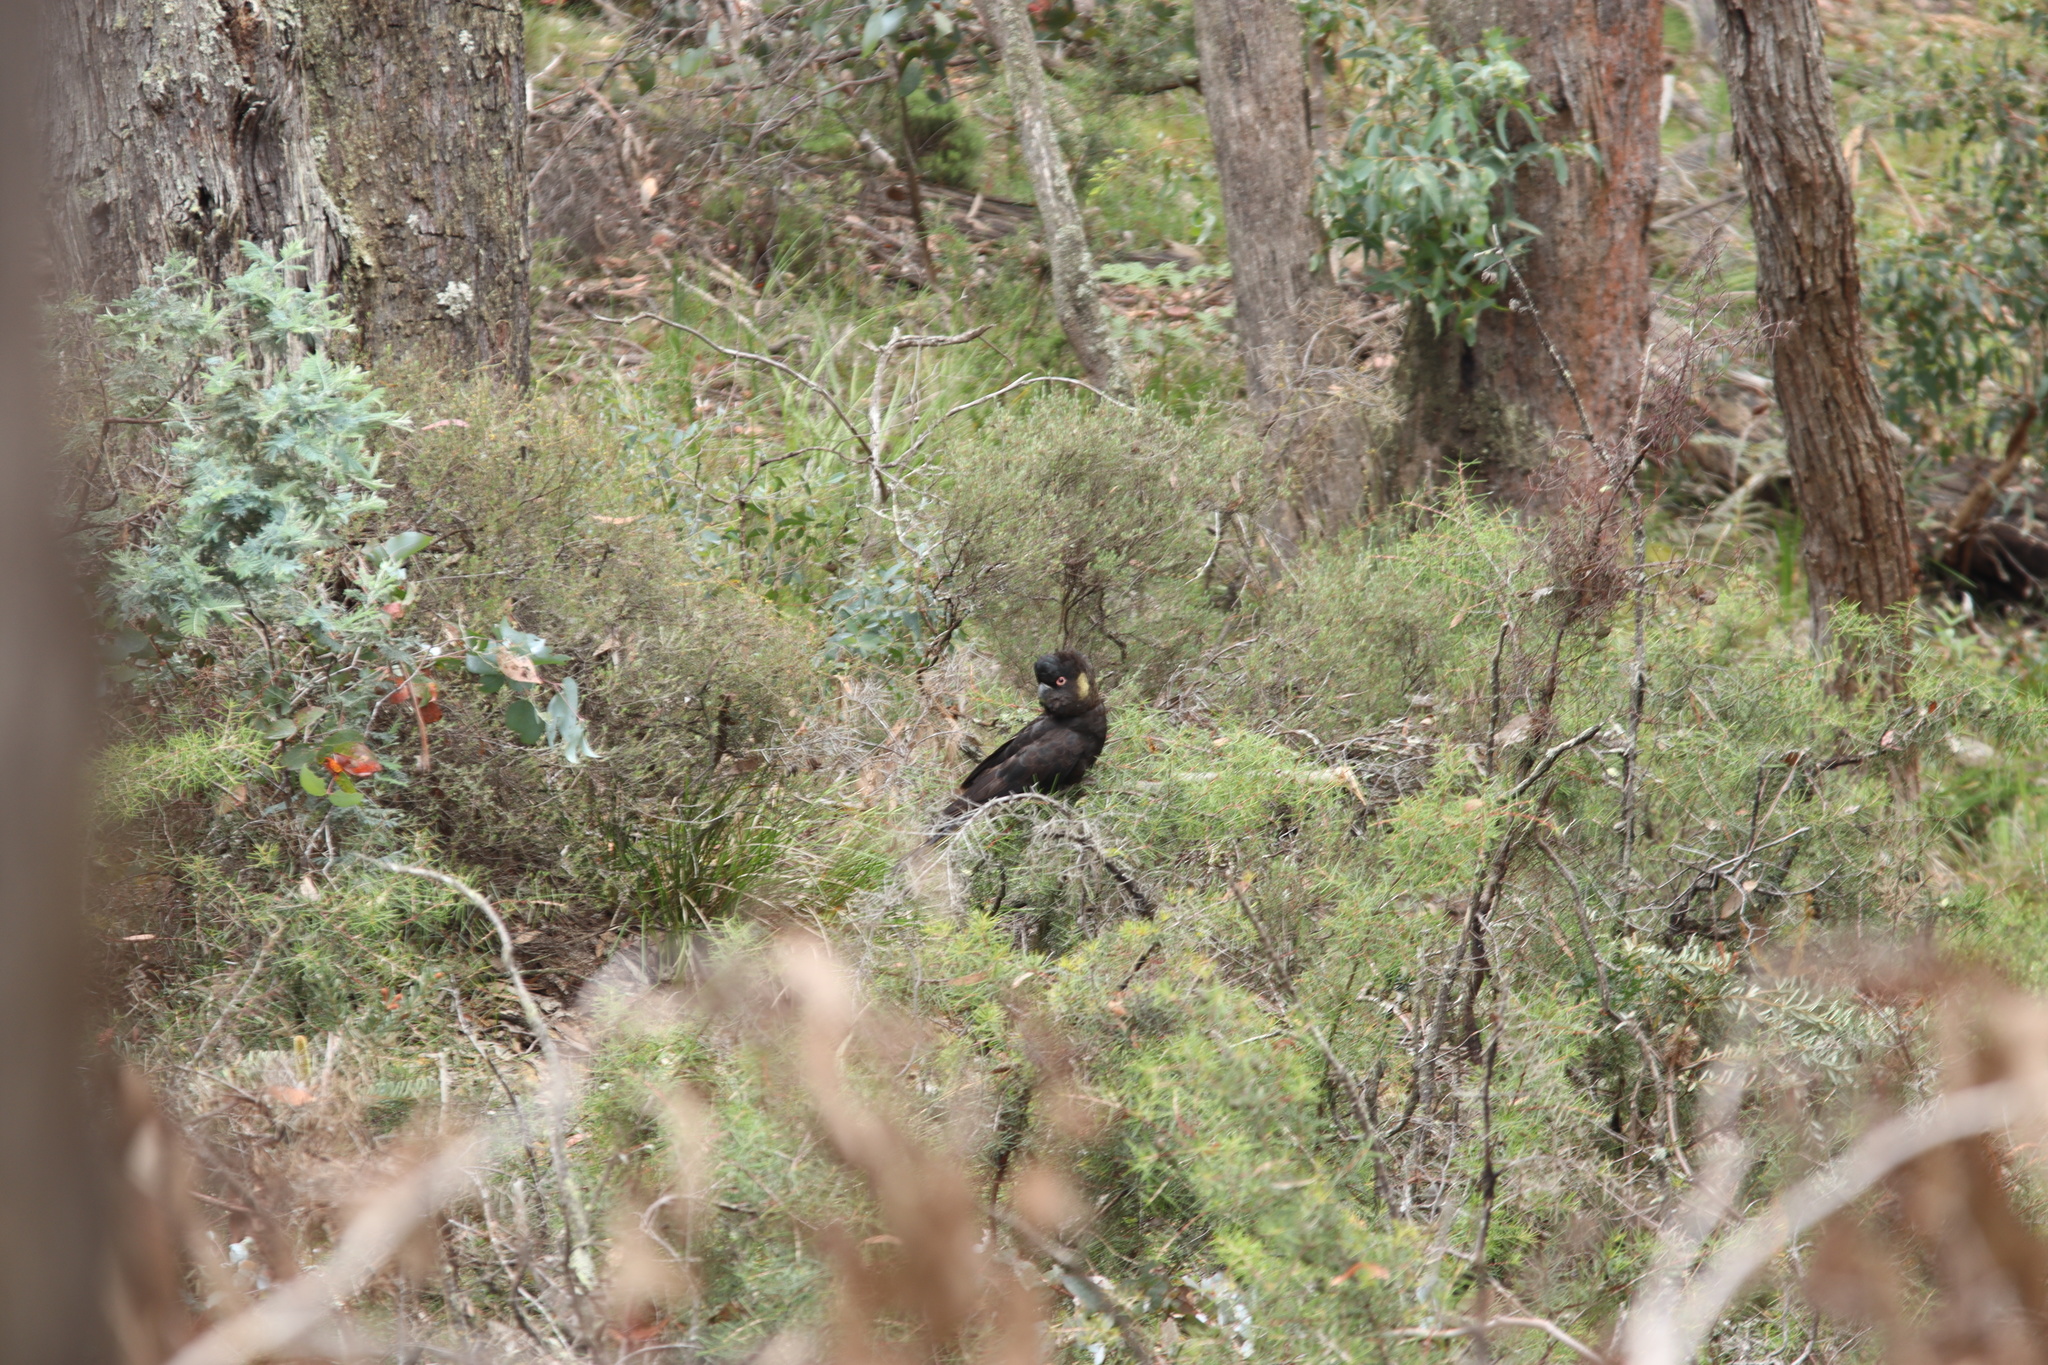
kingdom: Animalia
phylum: Chordata
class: Aves
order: Psittaciformes
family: Cacatuidae
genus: Zanda
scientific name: Zanda funerea
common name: Yellow-tailed black-cockatoo
